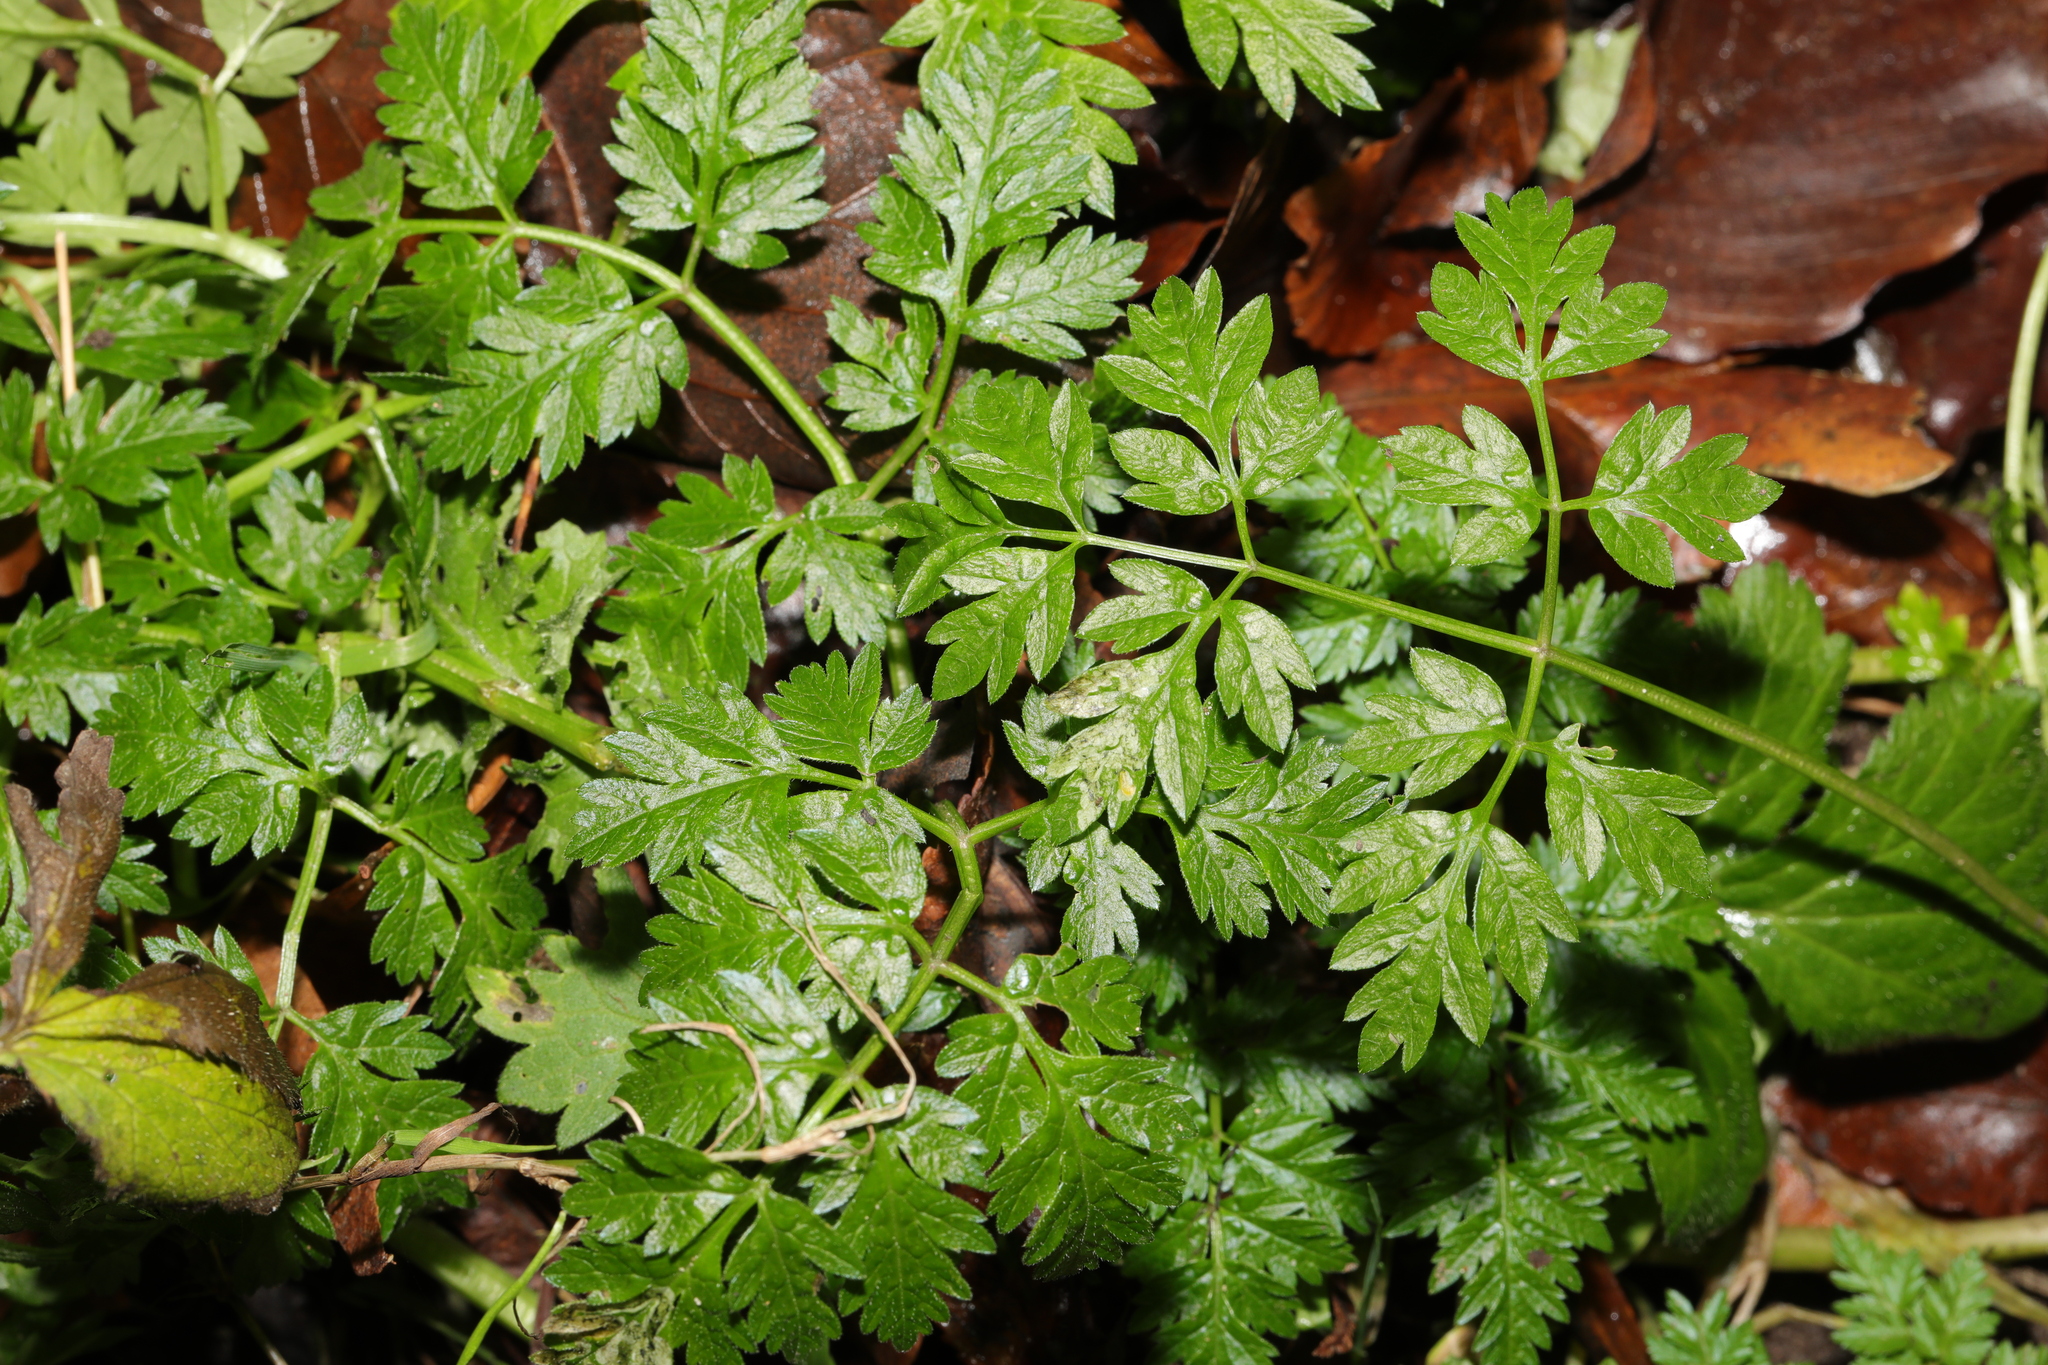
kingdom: Plantae
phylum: Tracheophyta
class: Magnoliopsida
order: Apiales
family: Apiaceae
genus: Anthriscus
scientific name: Anthriscus sylvestris
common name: Cow parsley
